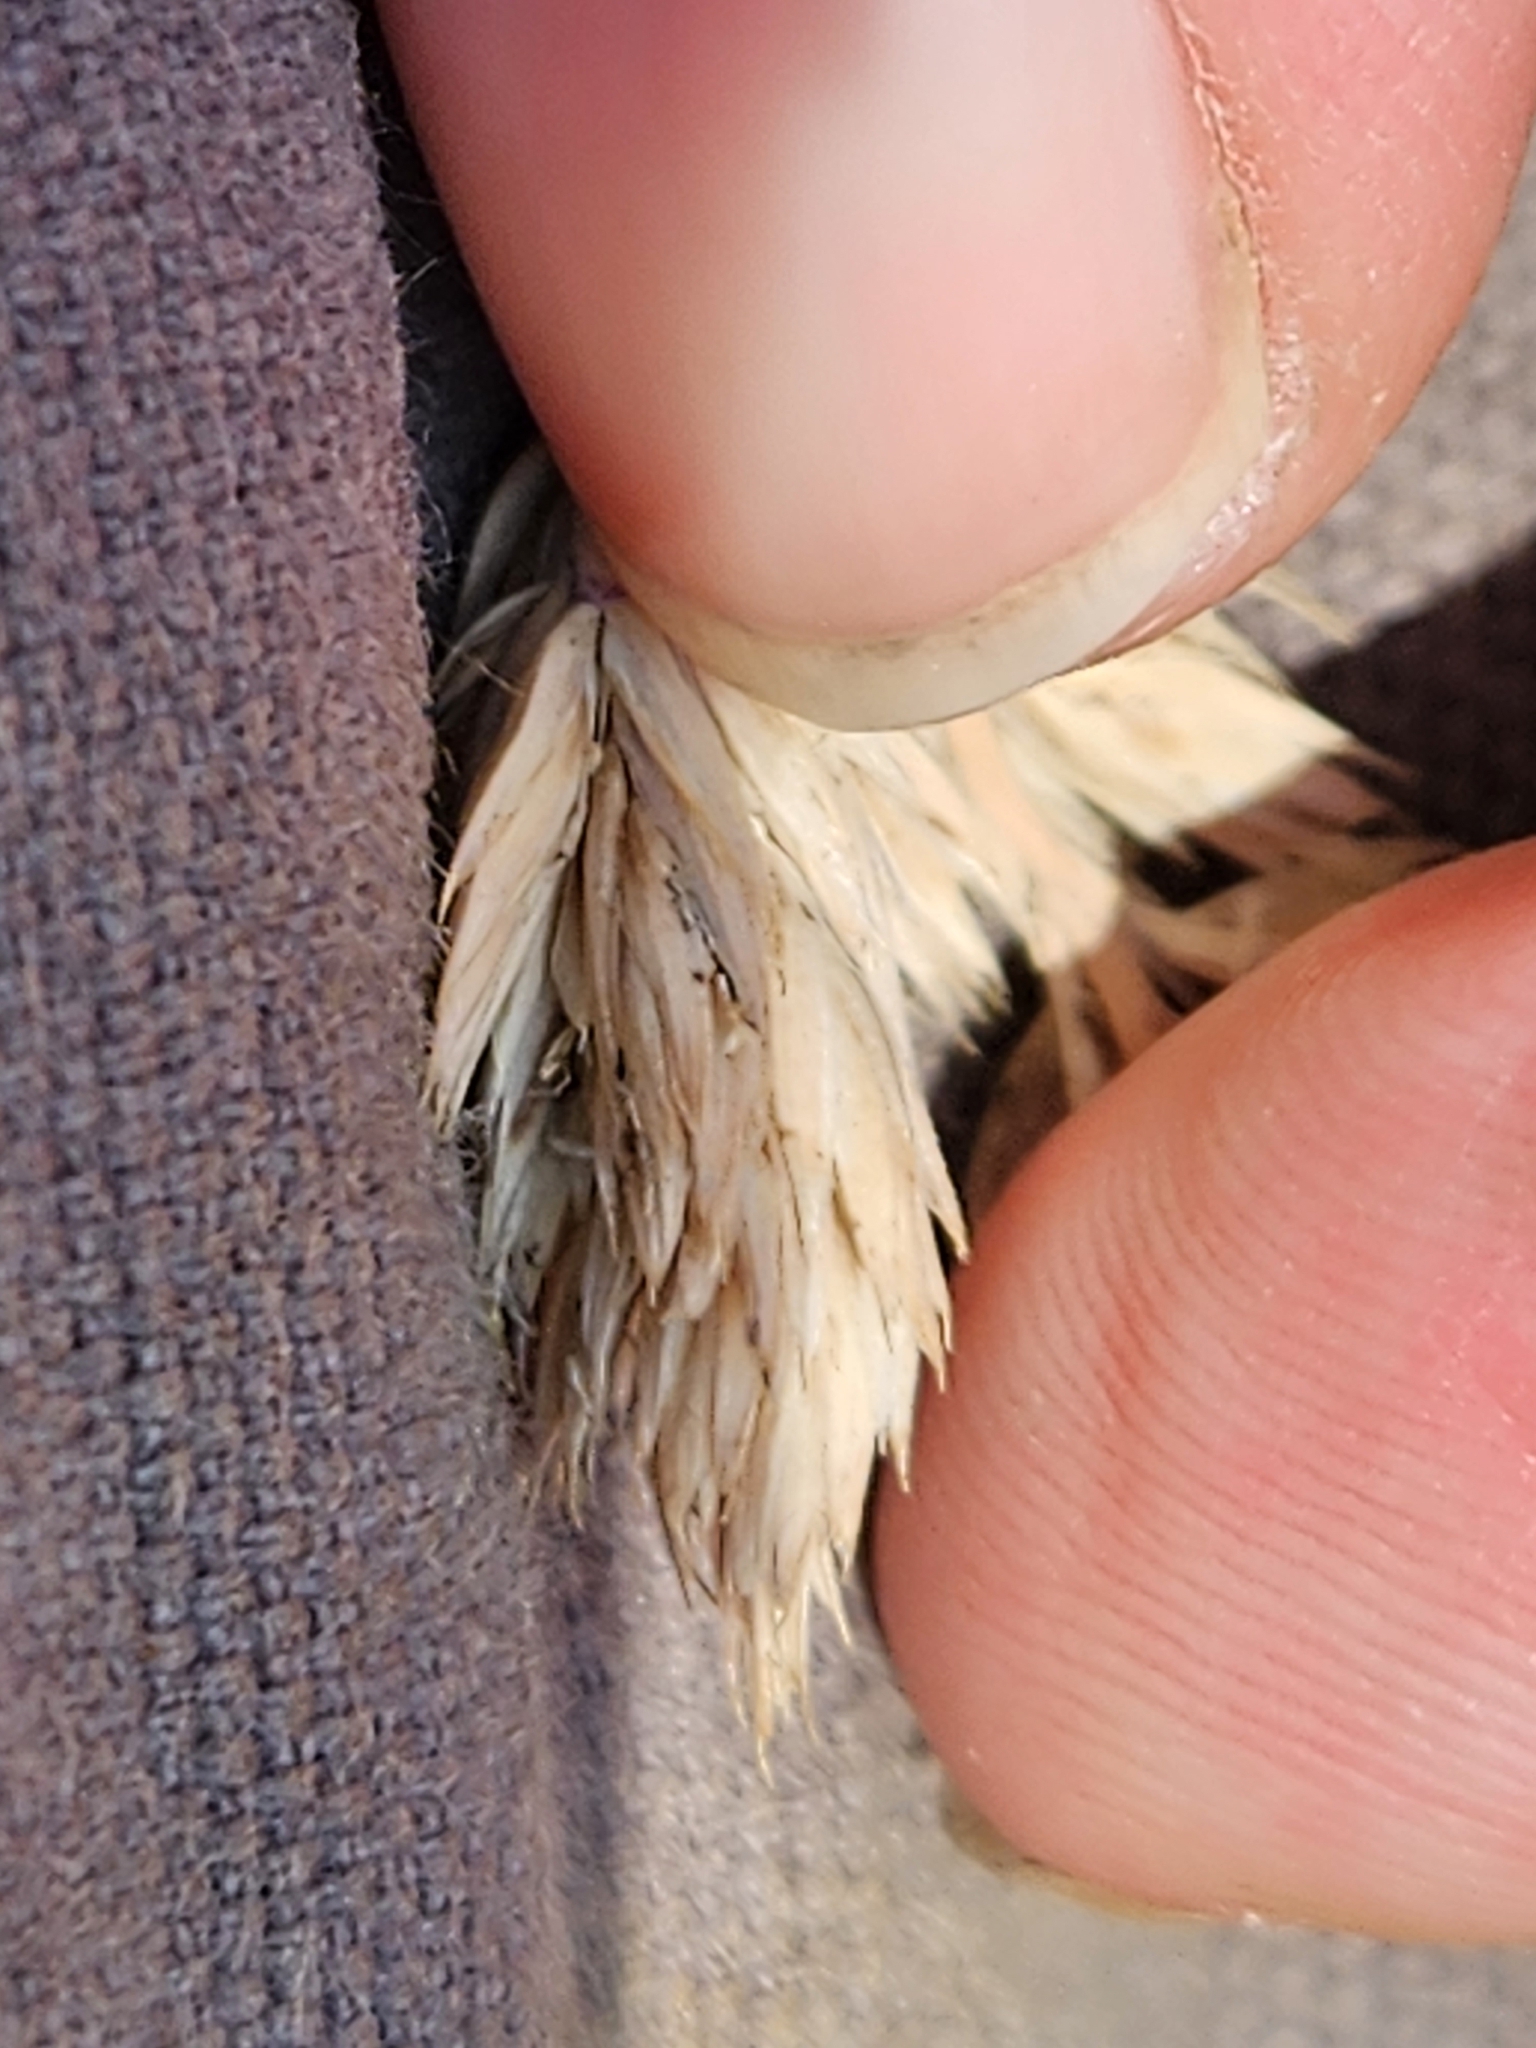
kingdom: Plantae
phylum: Tracheophyta
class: Liliopsida
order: Poales
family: Poaceae
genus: Dactylis
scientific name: Dactylis glomerata
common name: Orchardgrass
